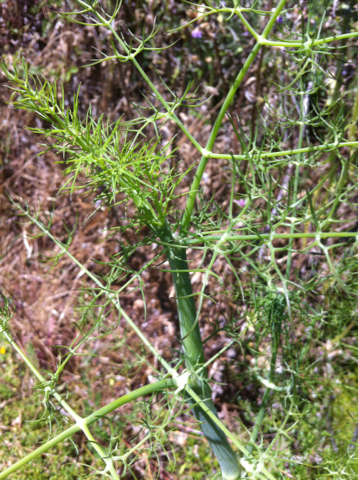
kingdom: Plantae
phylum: Tracheophyta
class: Magnoliopsida
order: Apiales
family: Apiaceae
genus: Foeniculum
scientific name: Foeniculum vulgare
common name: Fennel
